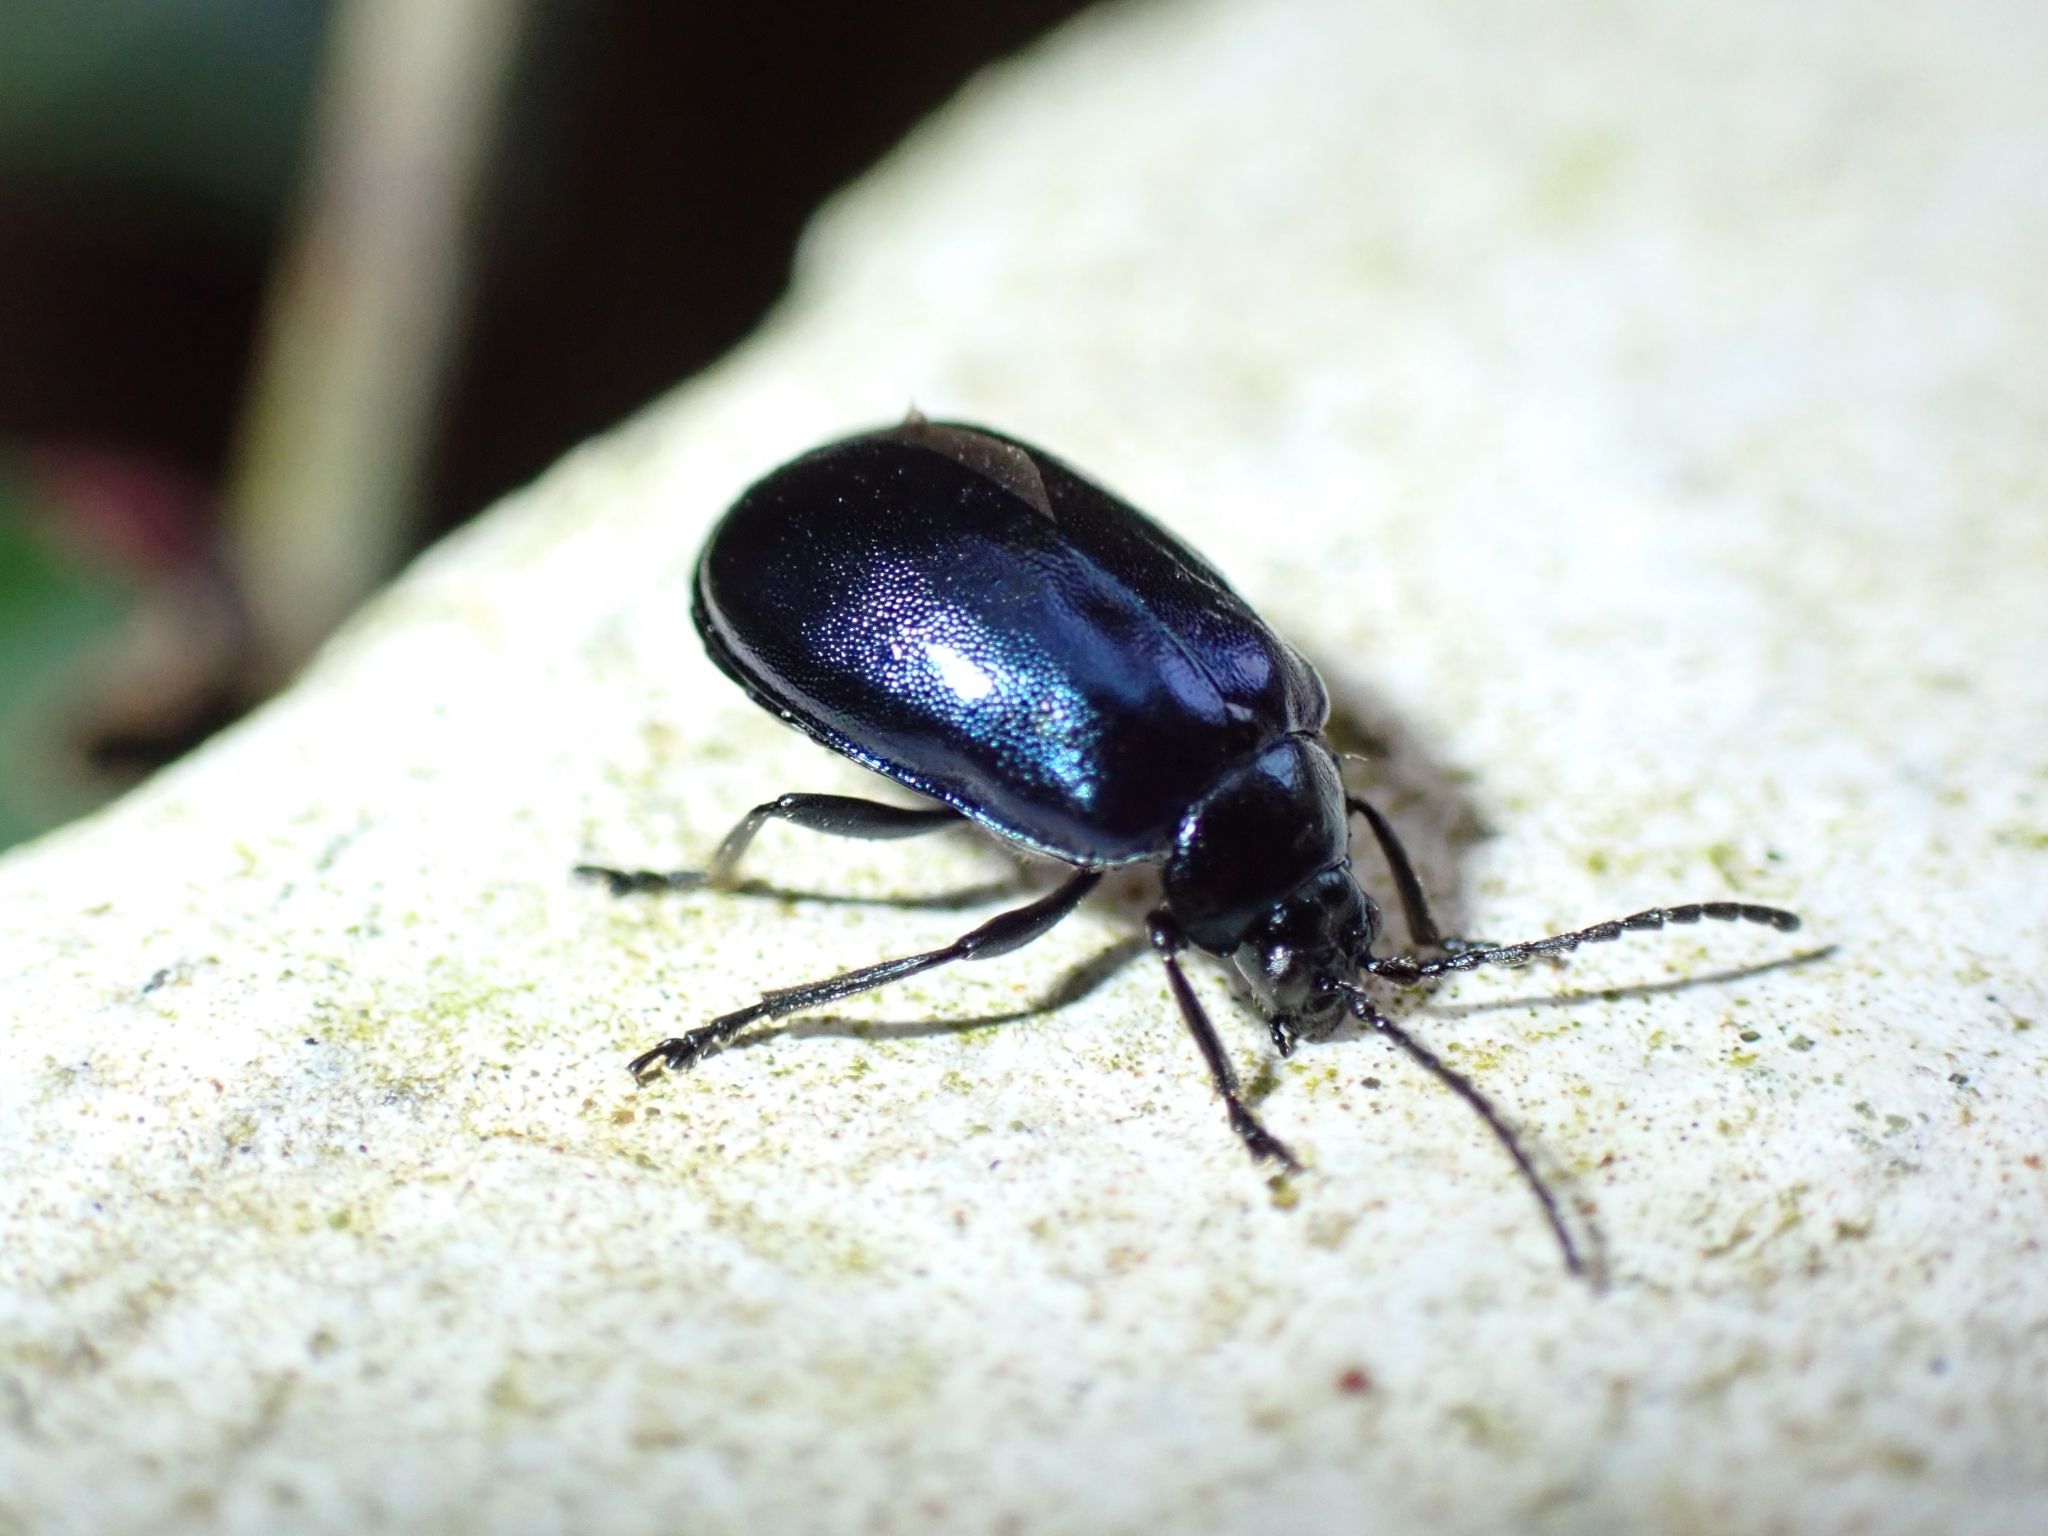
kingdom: Animalia
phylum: Arthropoda
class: Insecta
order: Coleoptera
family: Chrysomelidae
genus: Agelastica
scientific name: Agelastica alni
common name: Alder leaf beetle
